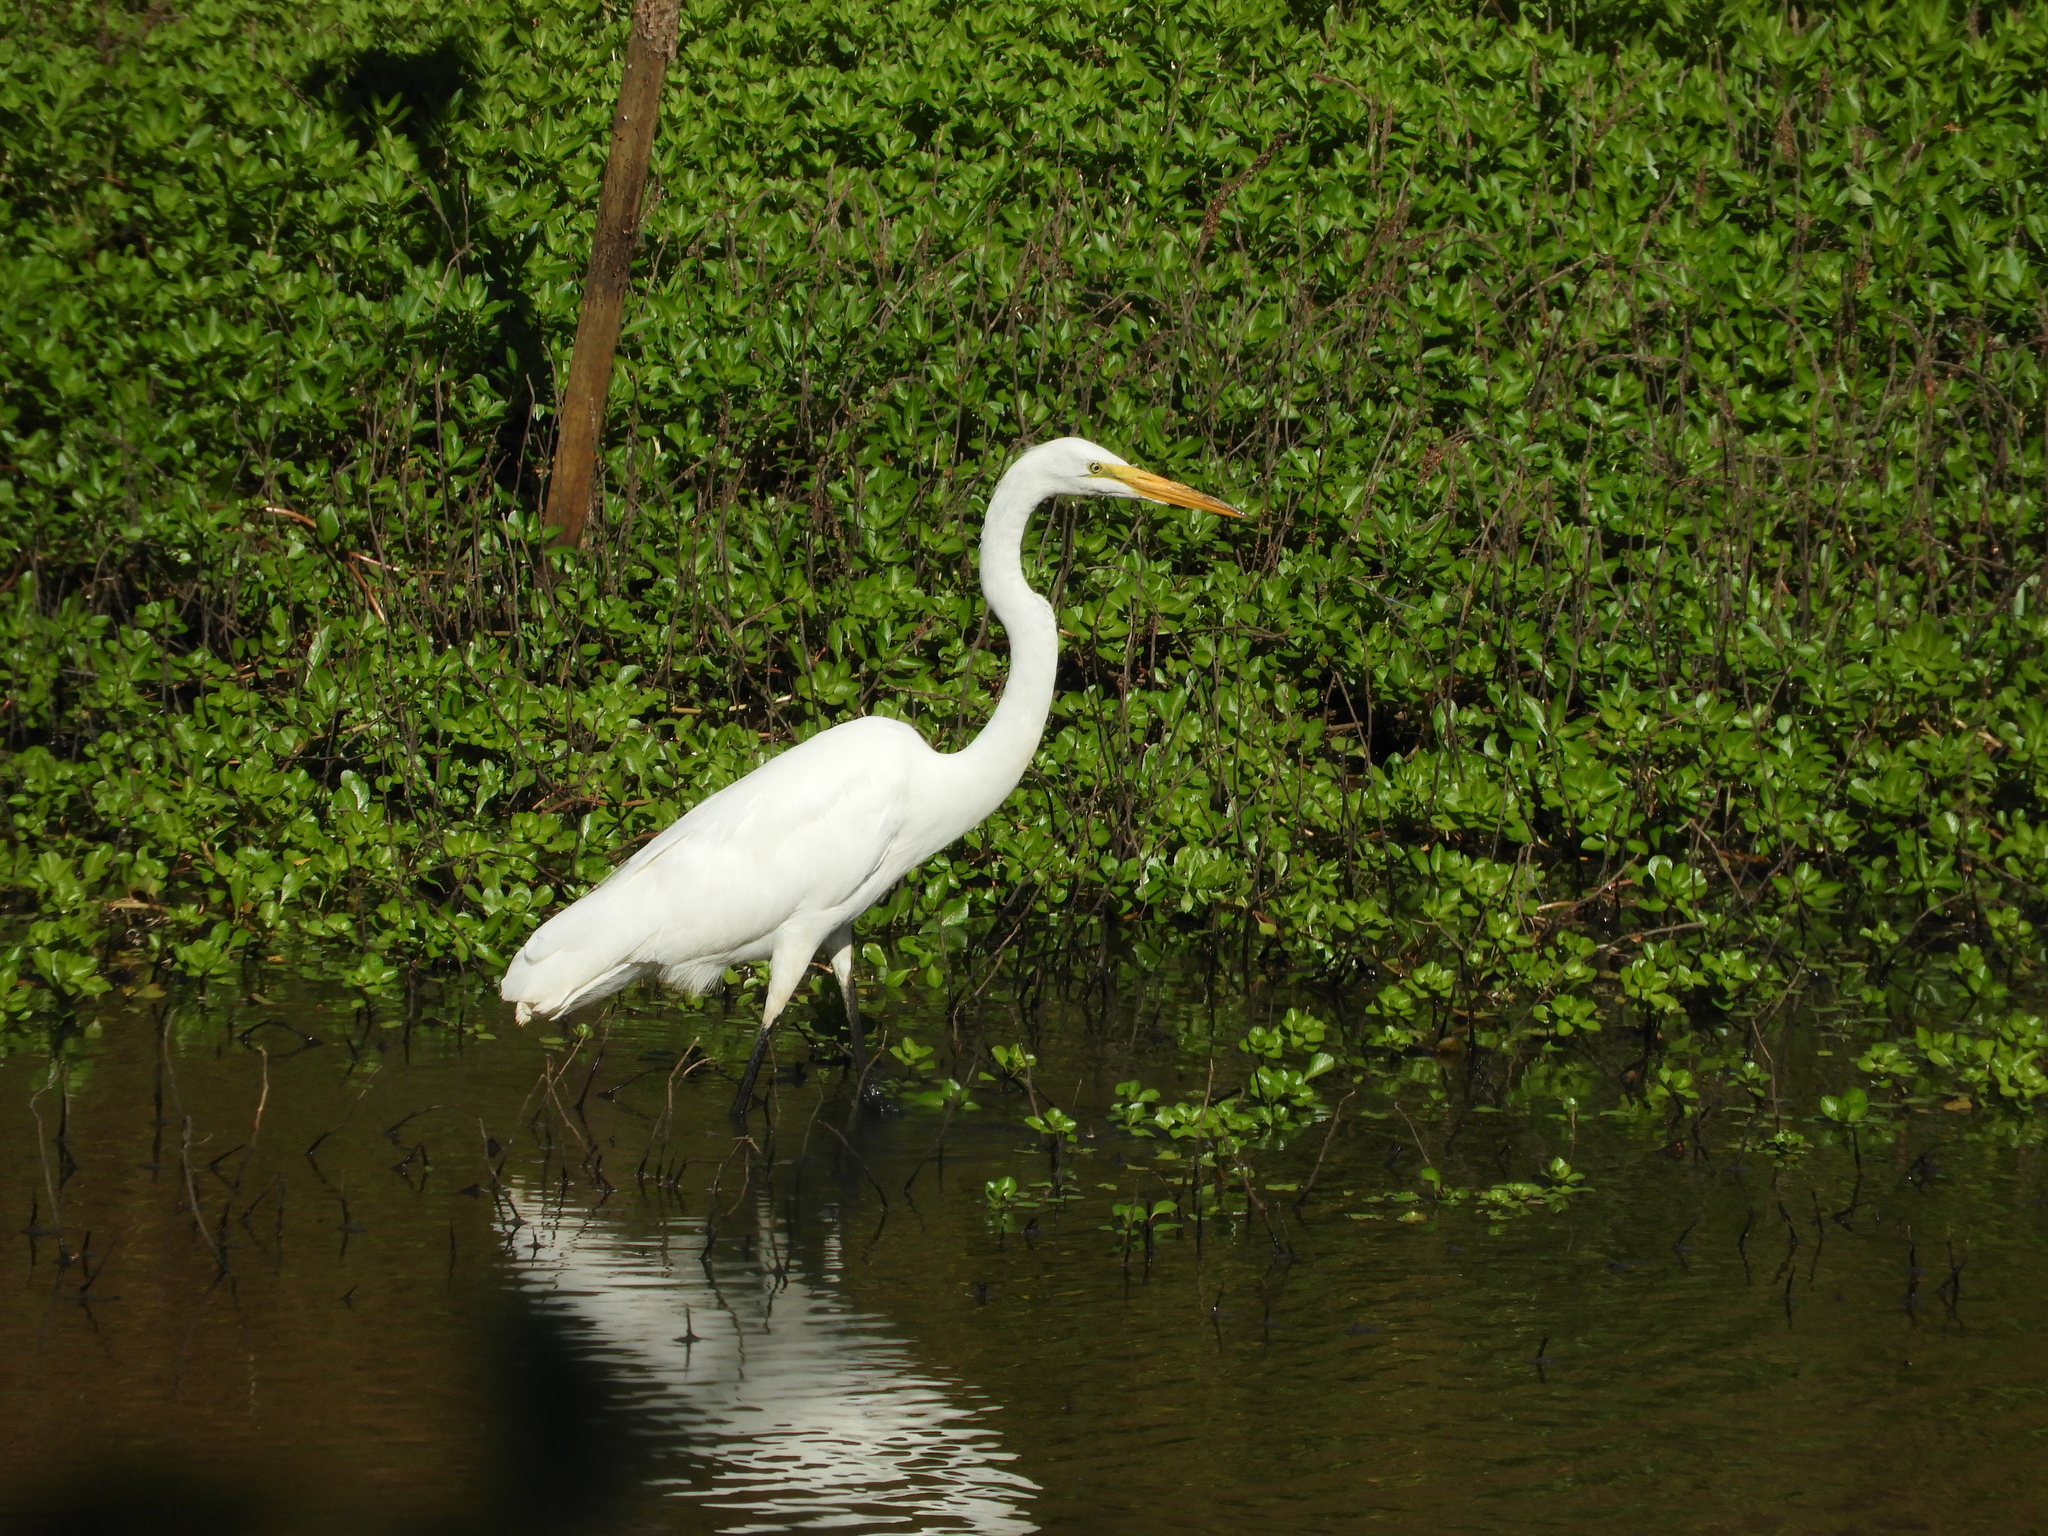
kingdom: Animalia
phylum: Chordata
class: Aves
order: Pelecaniformes
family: Ardeidae
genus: Ardea
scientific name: Ardea alba
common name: Great egret
